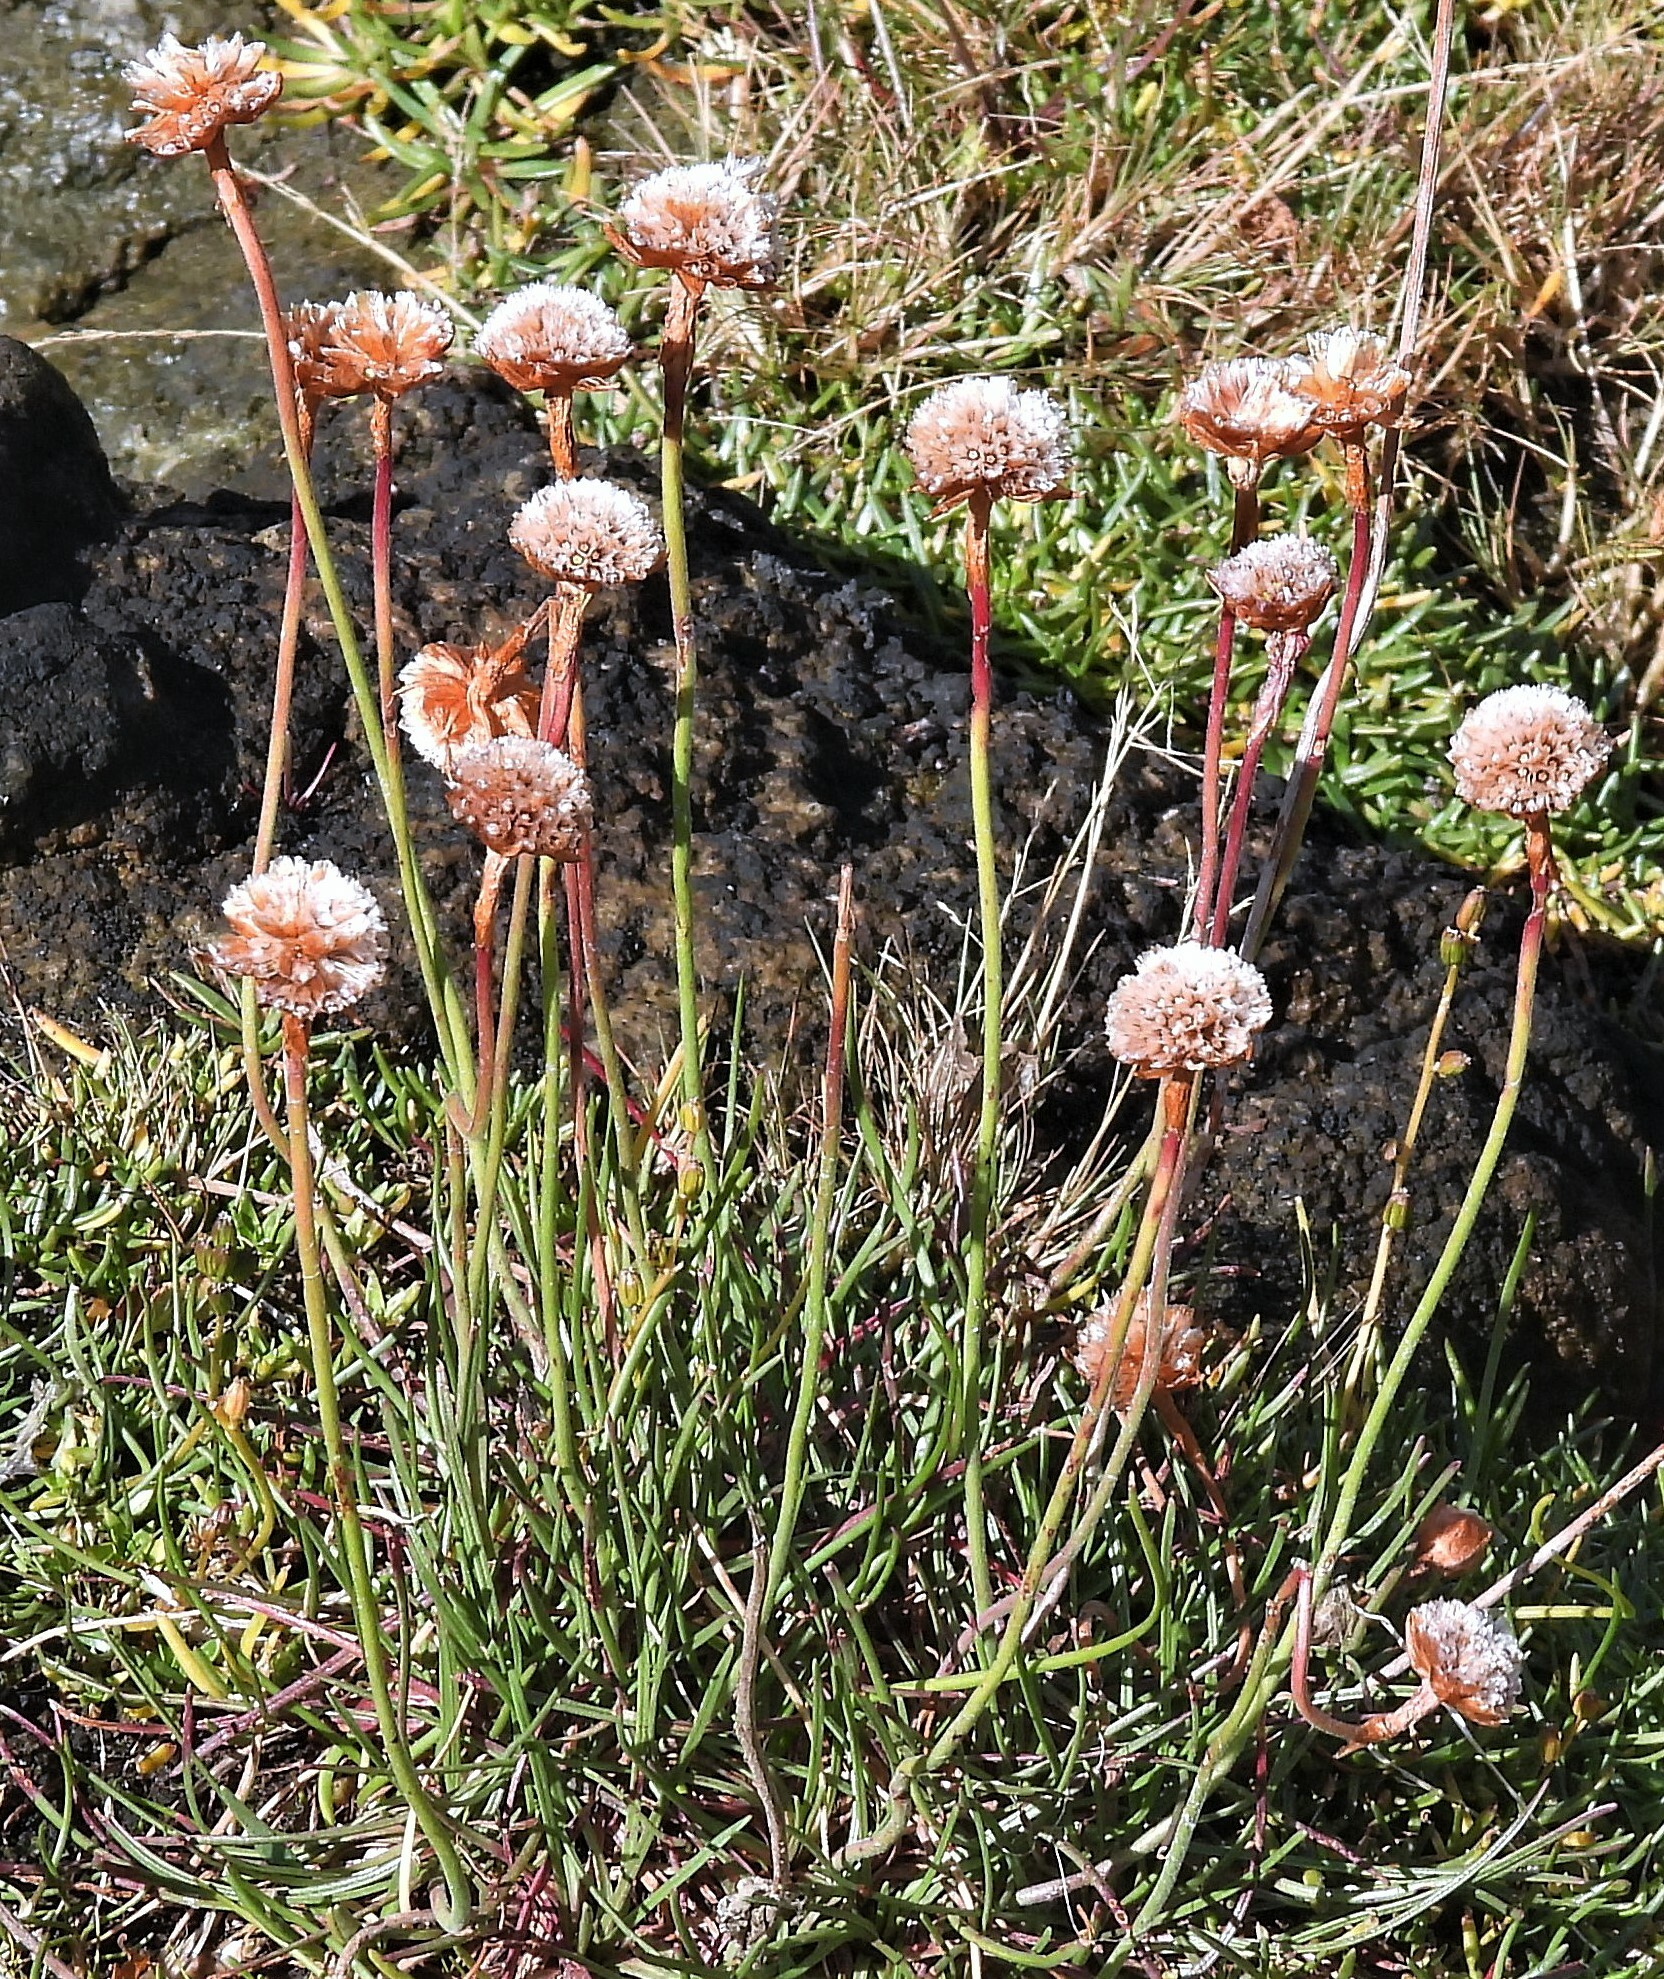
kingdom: Plantae
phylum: Tracheophyta
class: Magnoliopsida
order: Caryophyllales
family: Plumbaginaceae
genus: Armeria
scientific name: Armeria curvifolia
